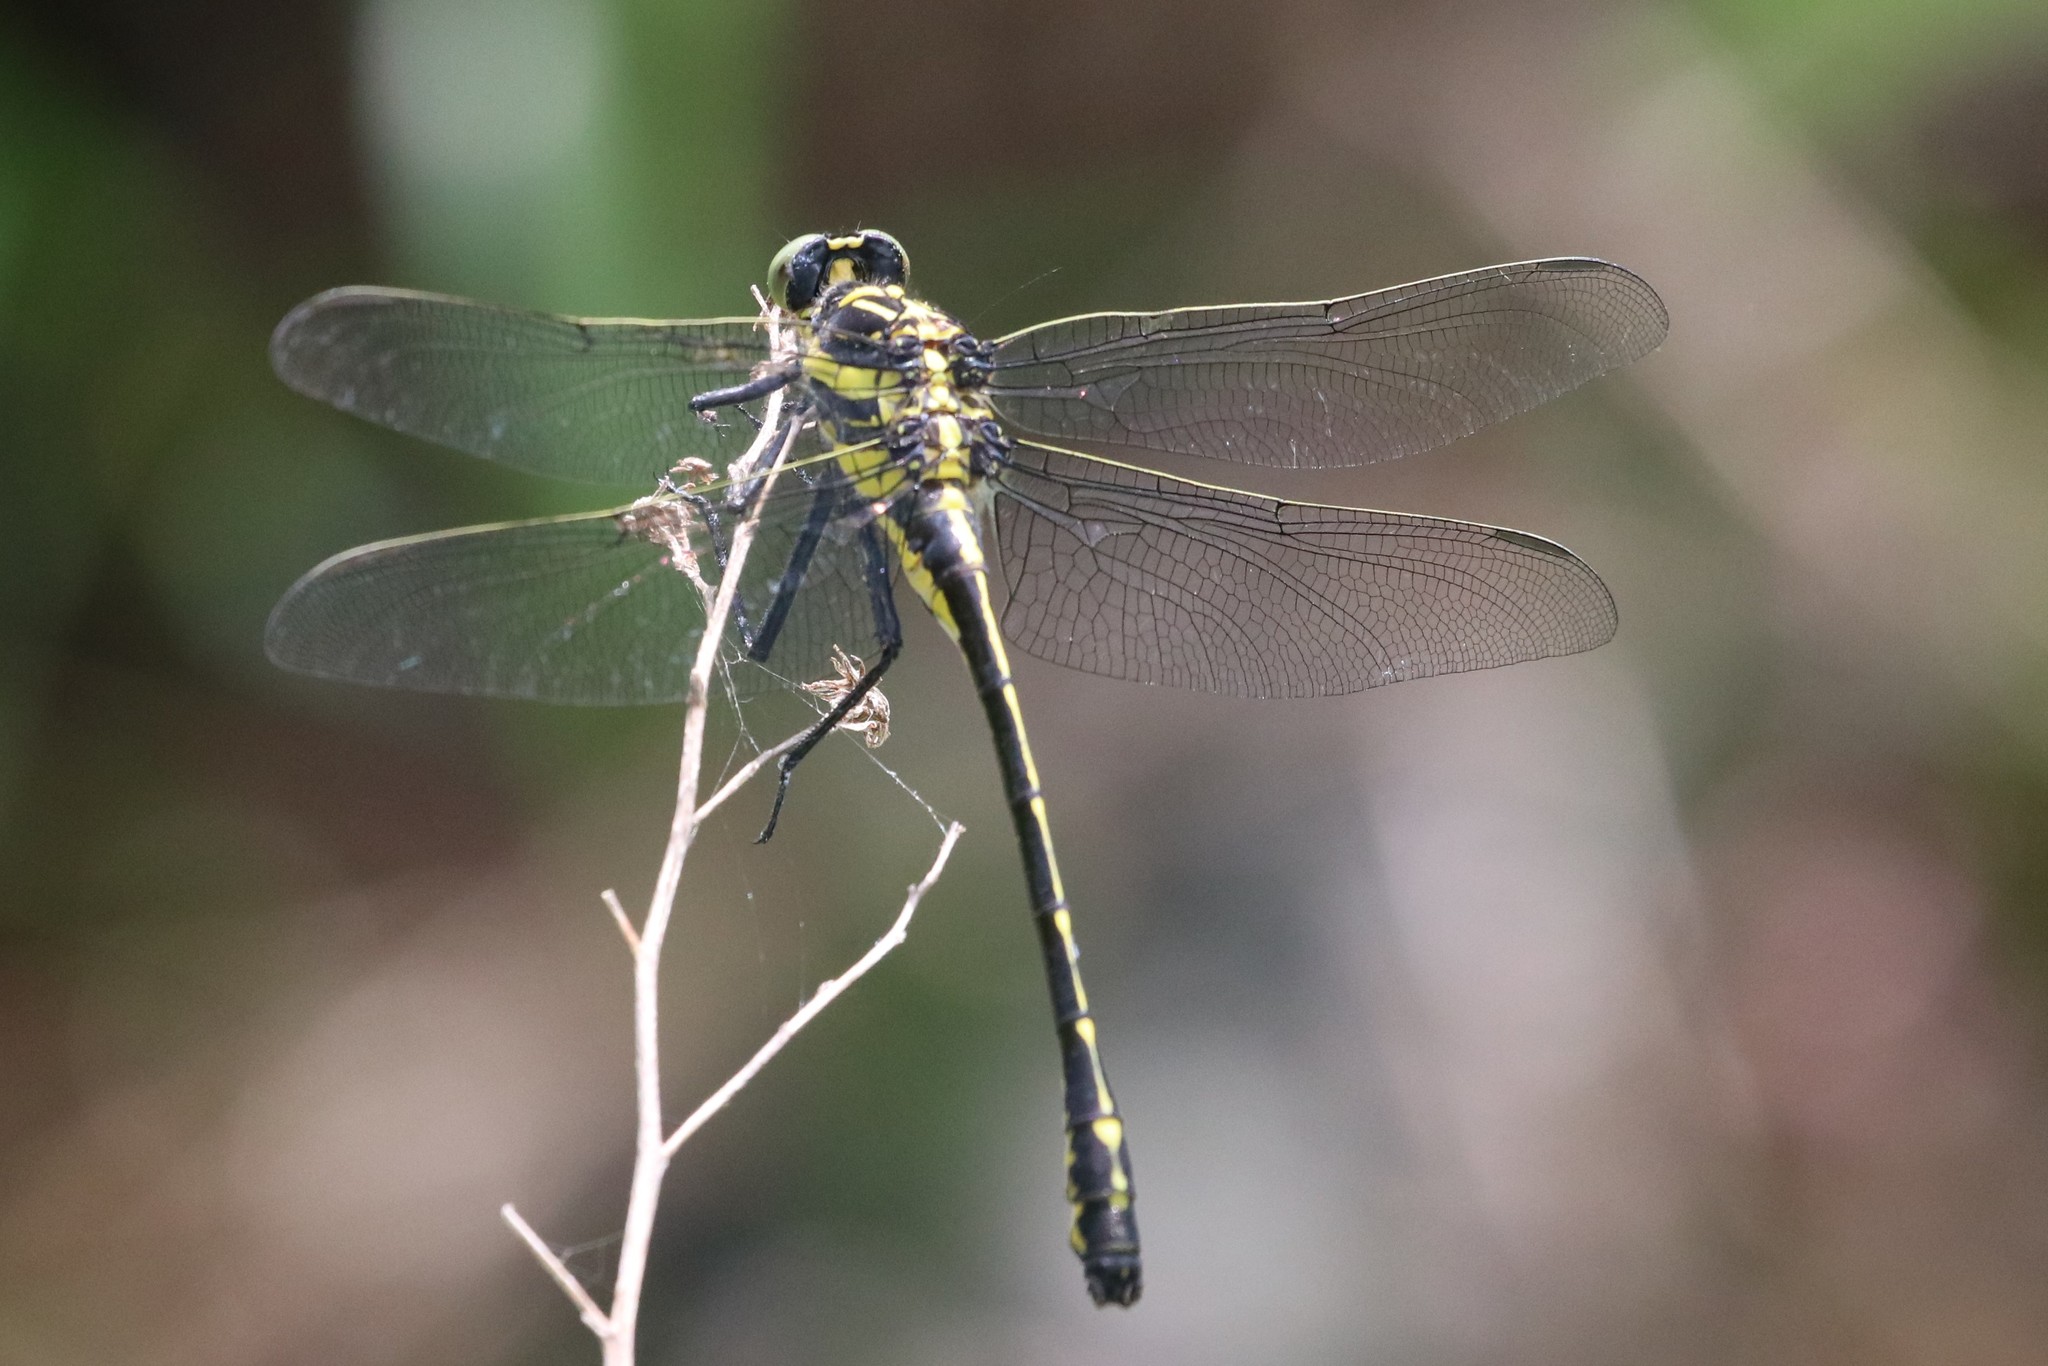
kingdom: Animalia
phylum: Arthropoda
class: Insecta
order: Odonata
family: Gomphidae
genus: Hagenius
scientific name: Hagenius brevistylus
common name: Dragonhunter
